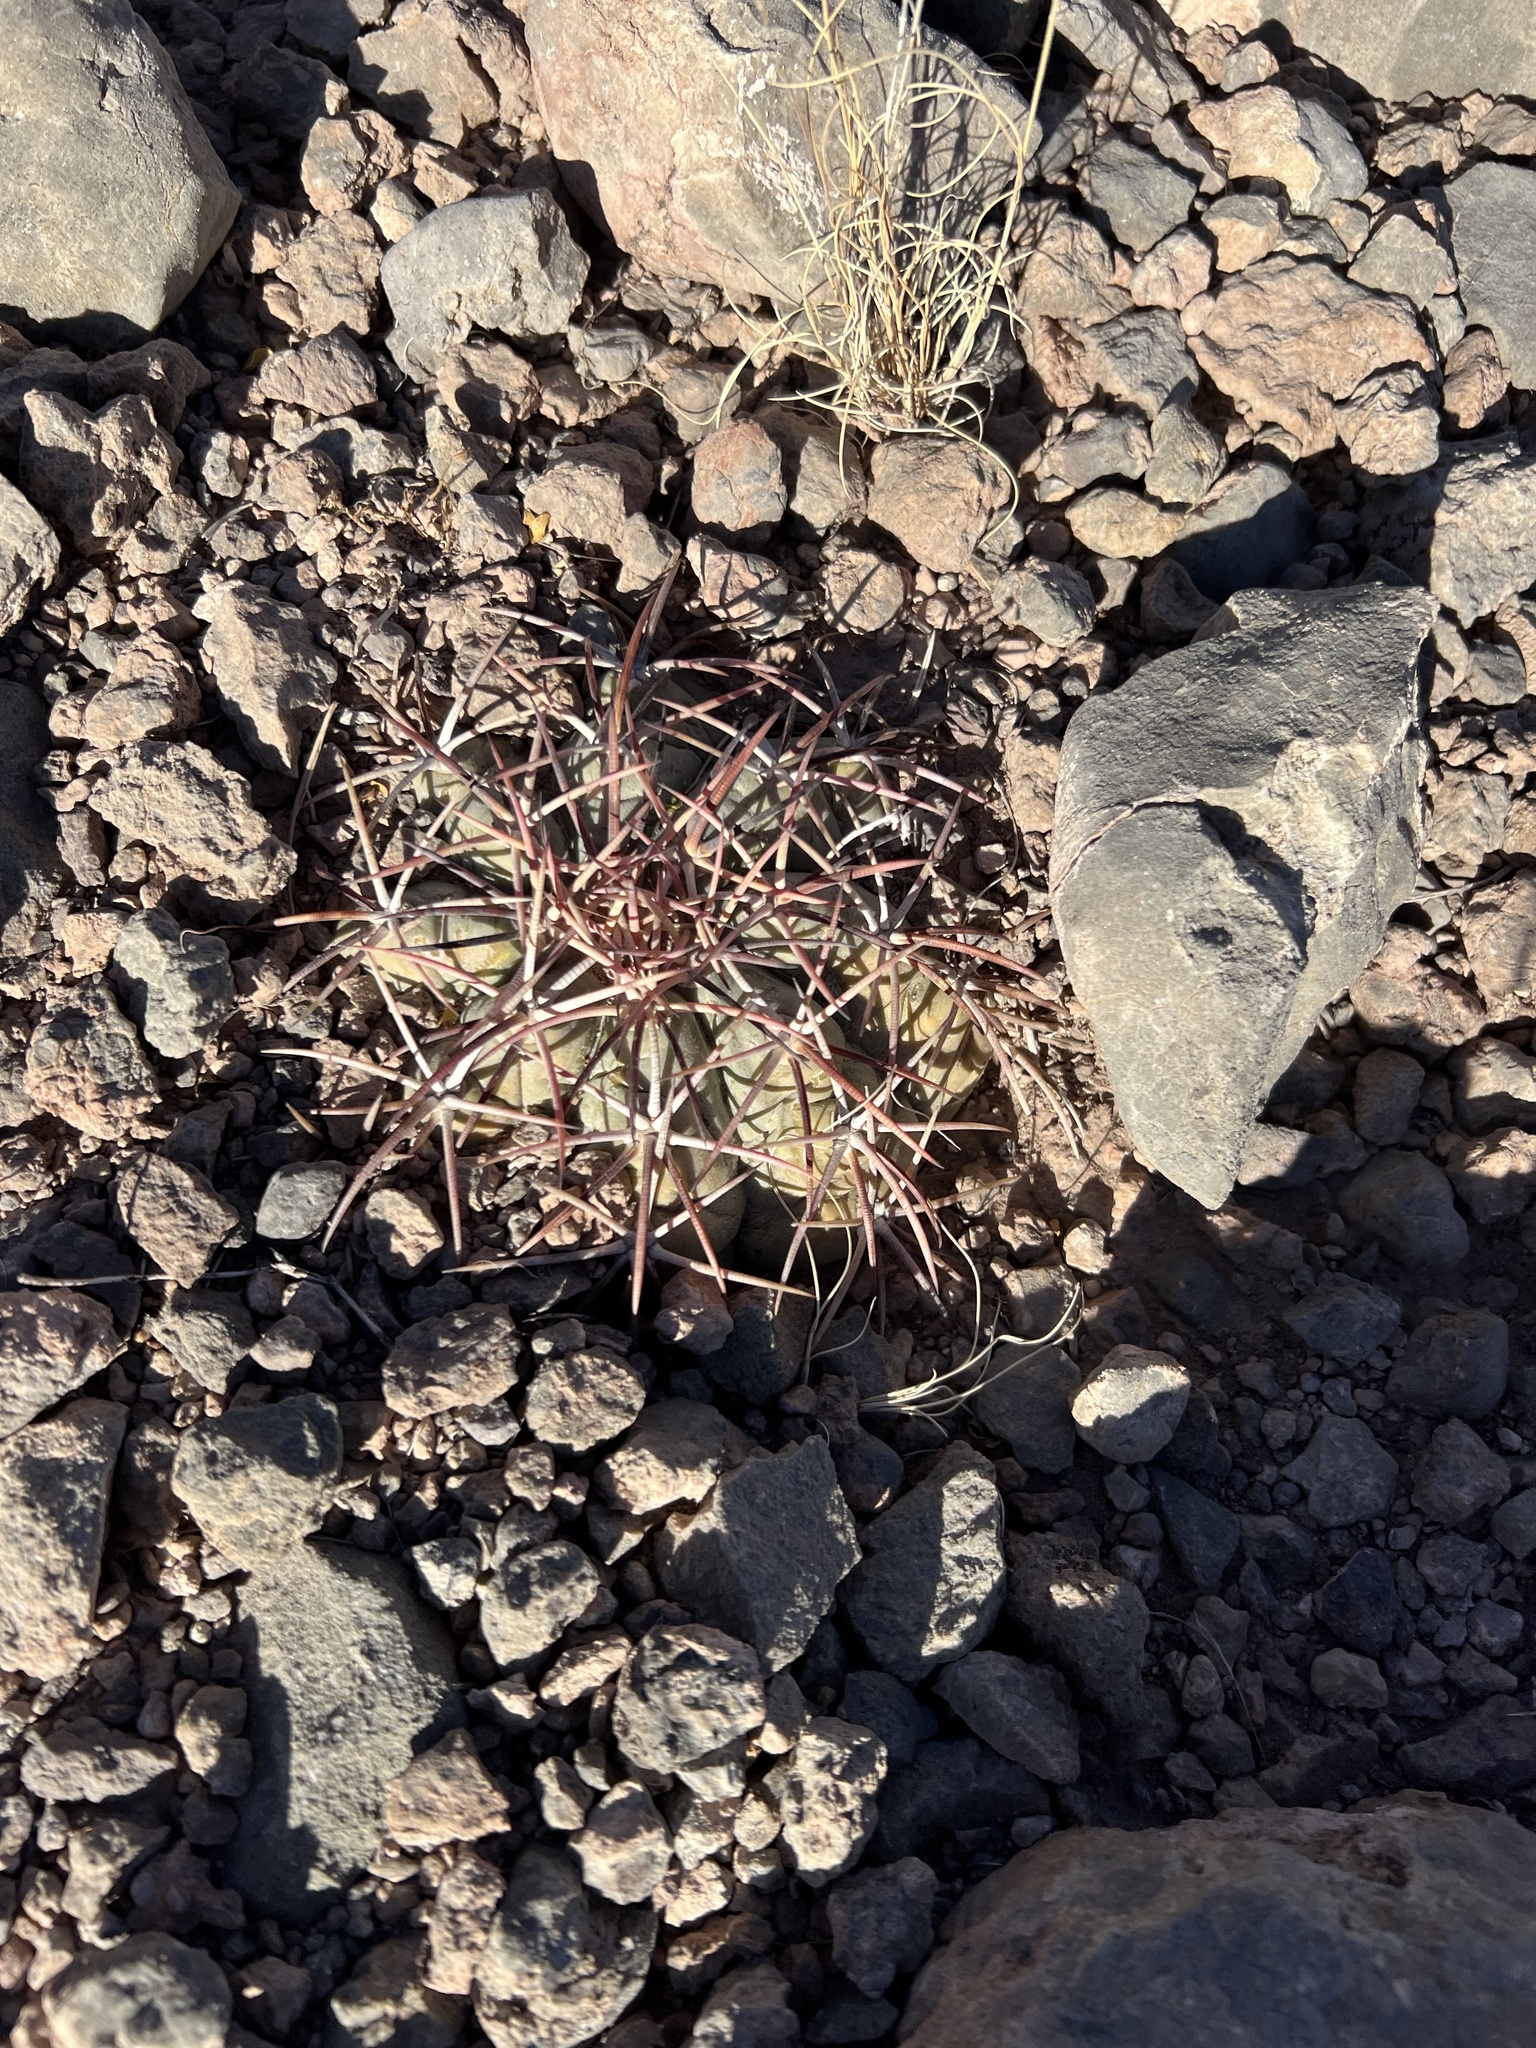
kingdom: Plantae
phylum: Tracheophyta
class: Magnoliopsida
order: Caryophyllales
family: Cactaceae
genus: Echinocactus
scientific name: Echinocactus horizonthalonius
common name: Devilshead
